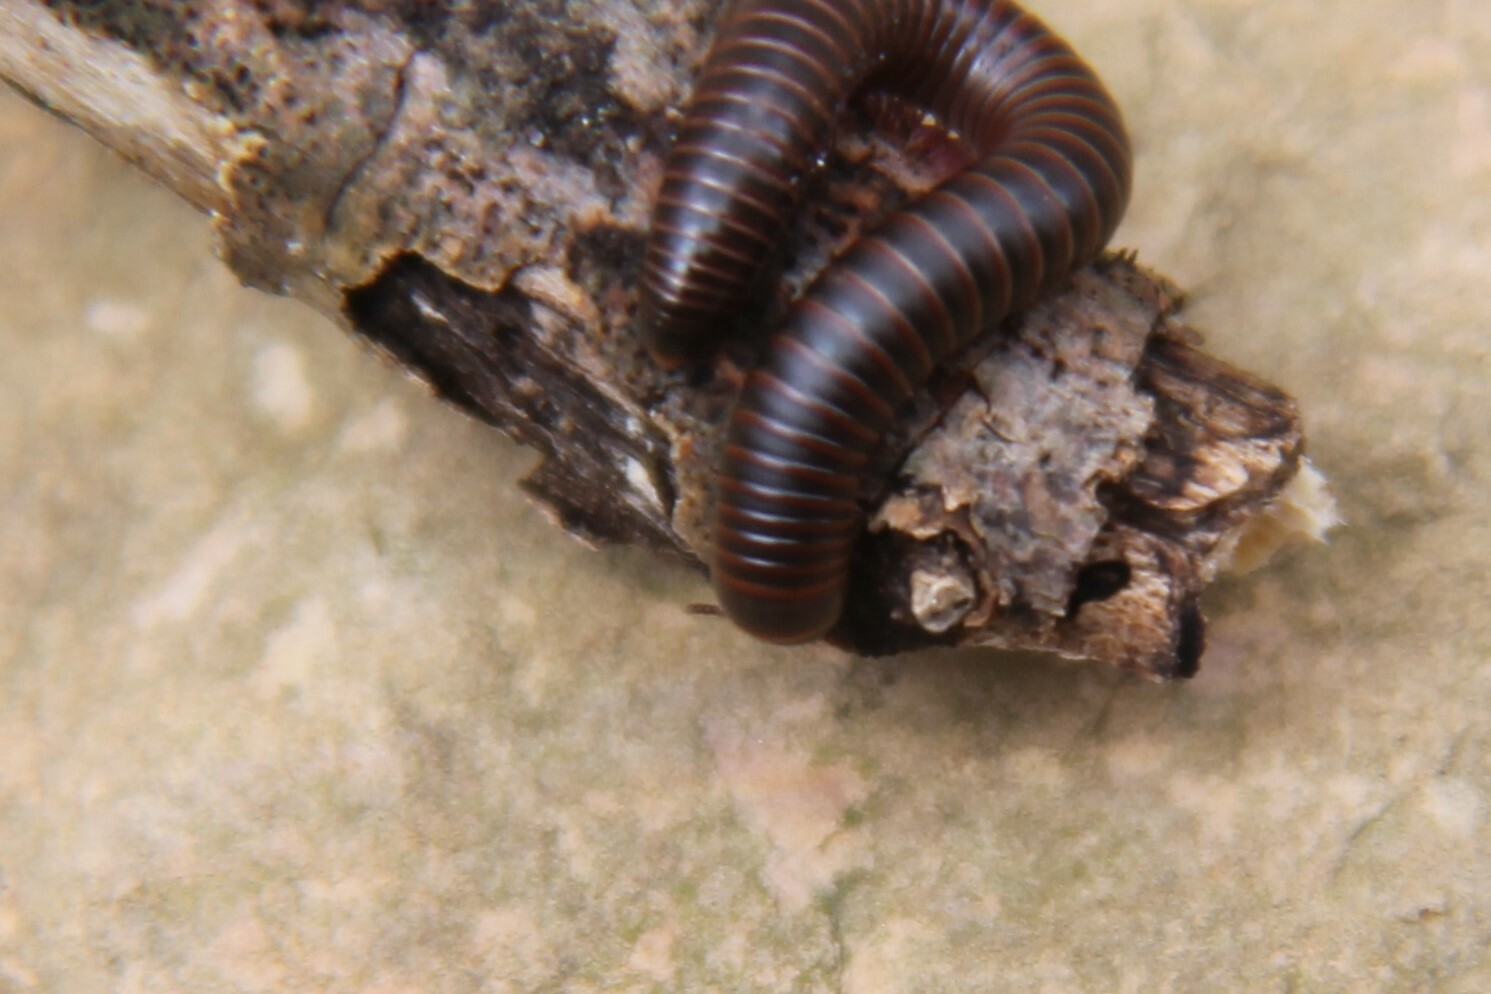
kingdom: Animalia
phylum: Arthropoda
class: Diplopoda
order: Spirobolida
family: Spirobolidae
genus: Narceus
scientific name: Narceus
